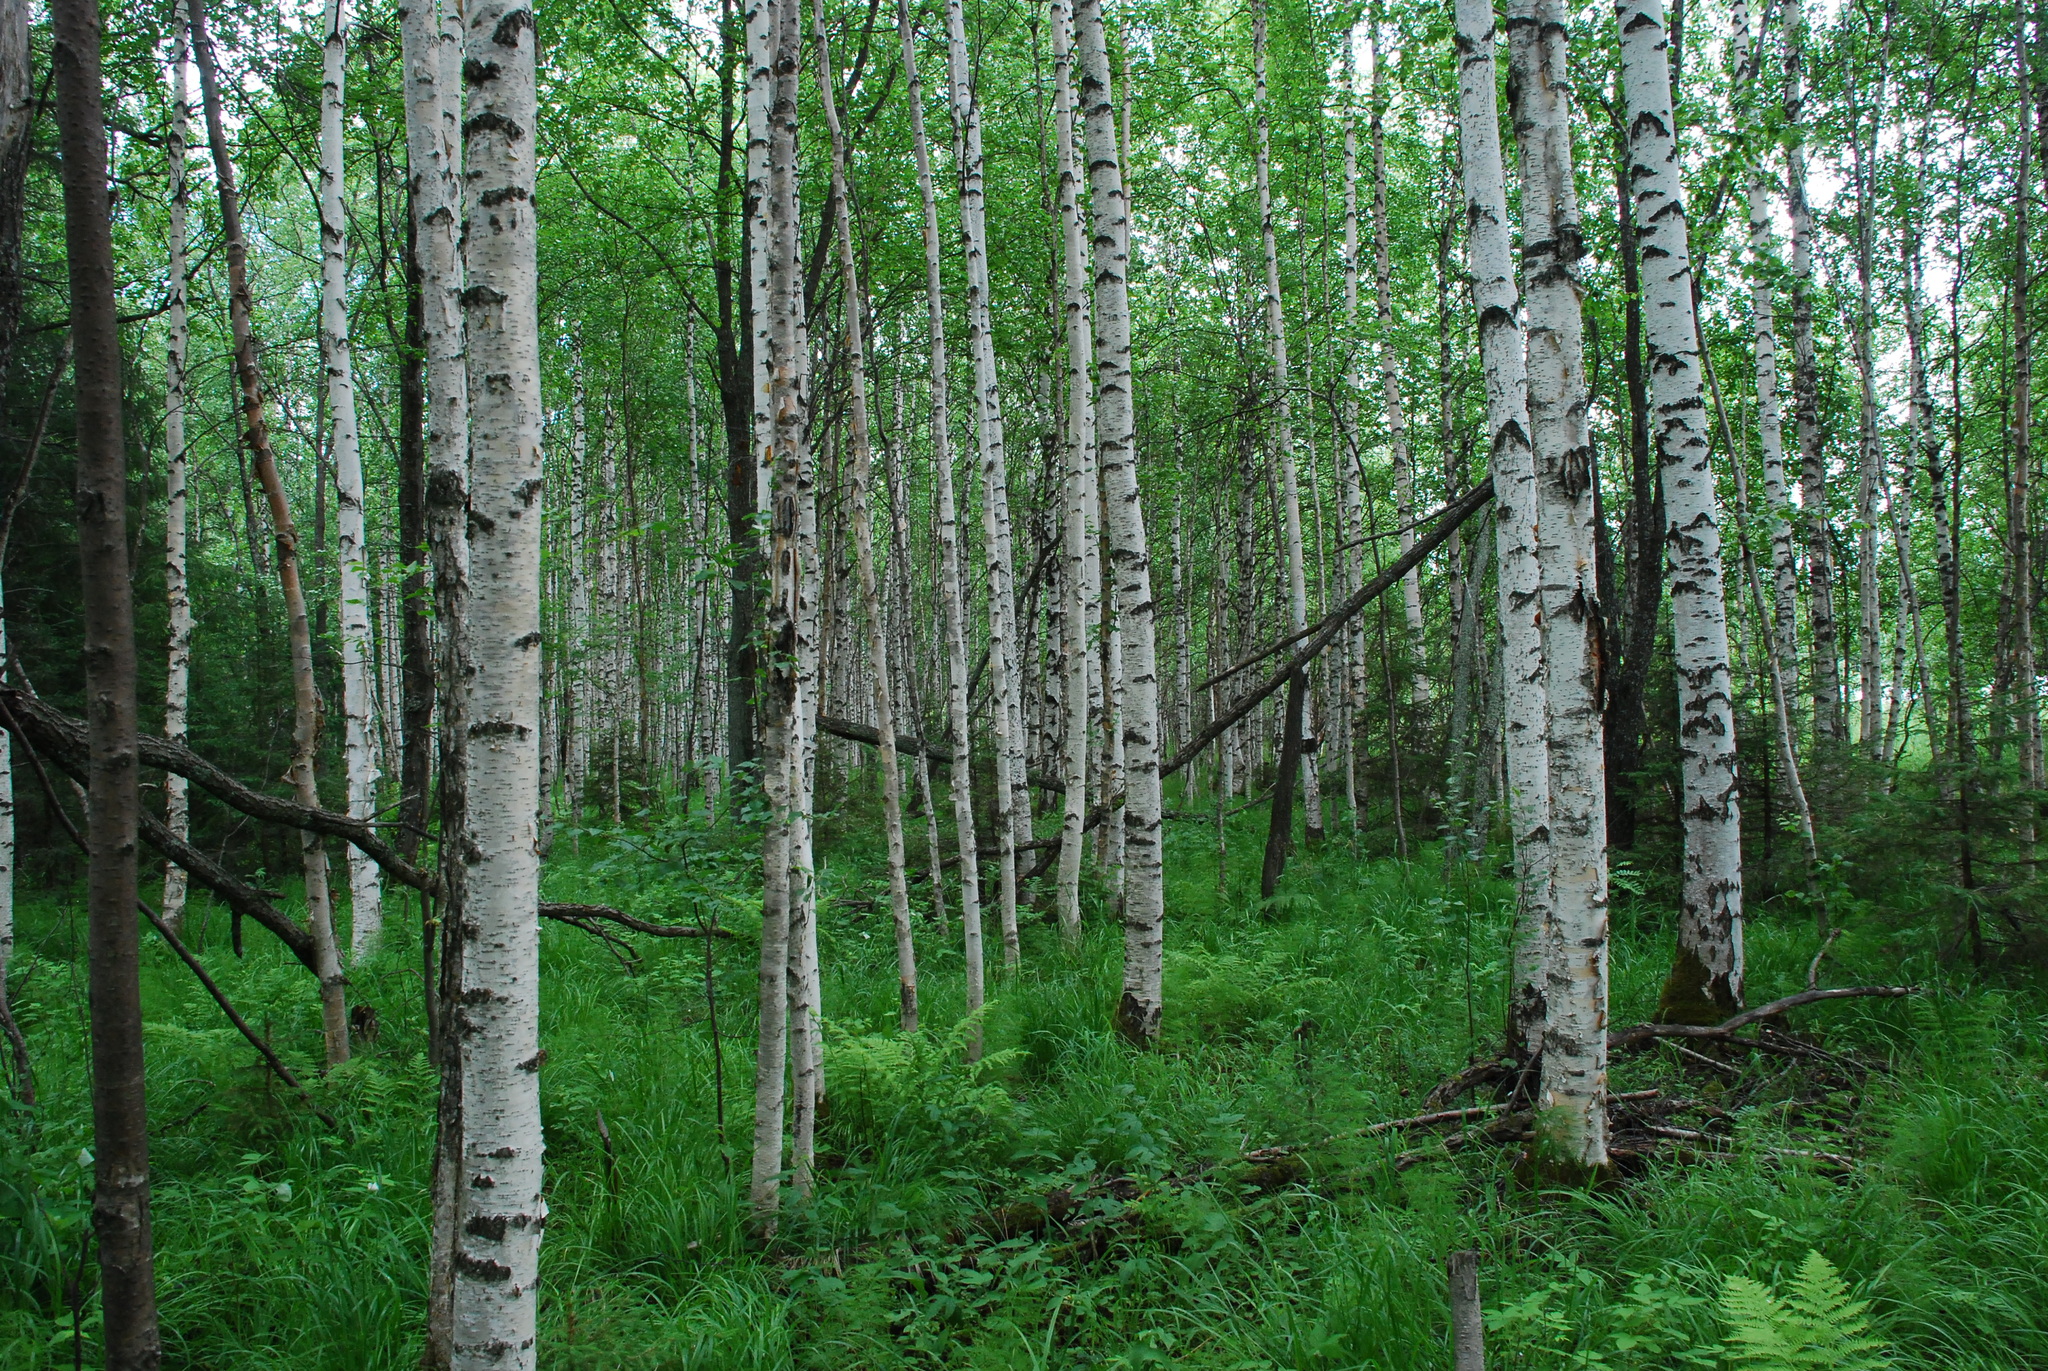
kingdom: Plantae
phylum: Tracheophyta
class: Magnoliopsida
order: Fagales
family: Betulaceae
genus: Betula
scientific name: Betula pubescens
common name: Downy birch
